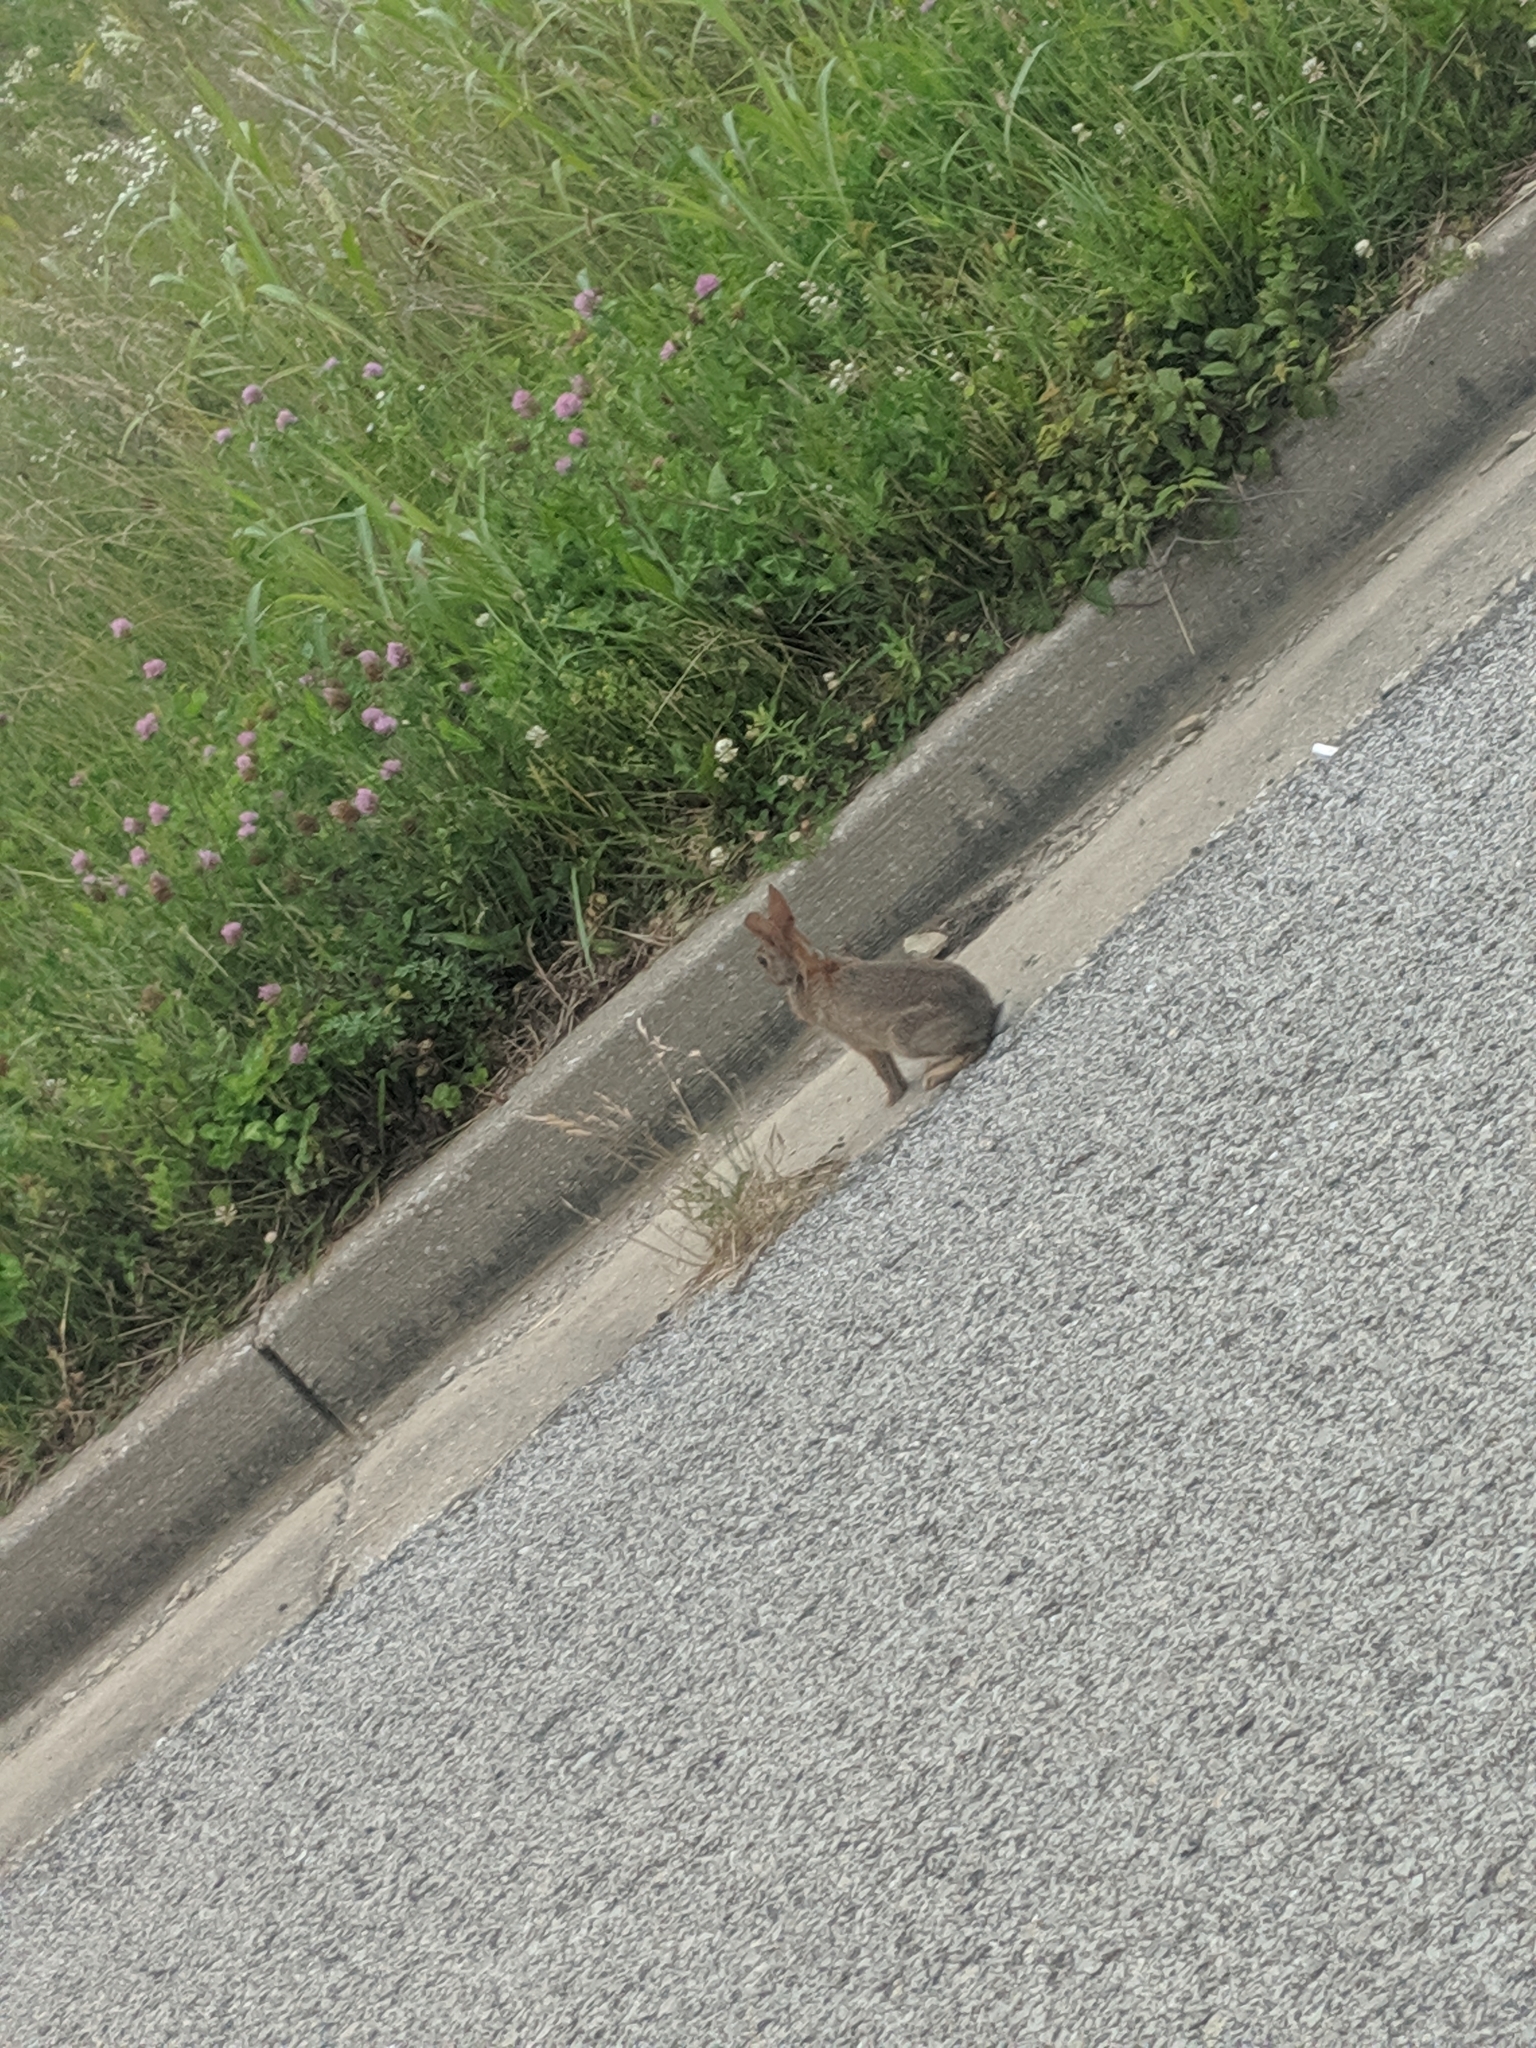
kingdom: Animalia
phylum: Chordata
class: Mammalia
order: Lagomorpha
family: Leporidae
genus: Sylvilagus
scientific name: Sylvilagus floridanus
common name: Eastern cottontail
